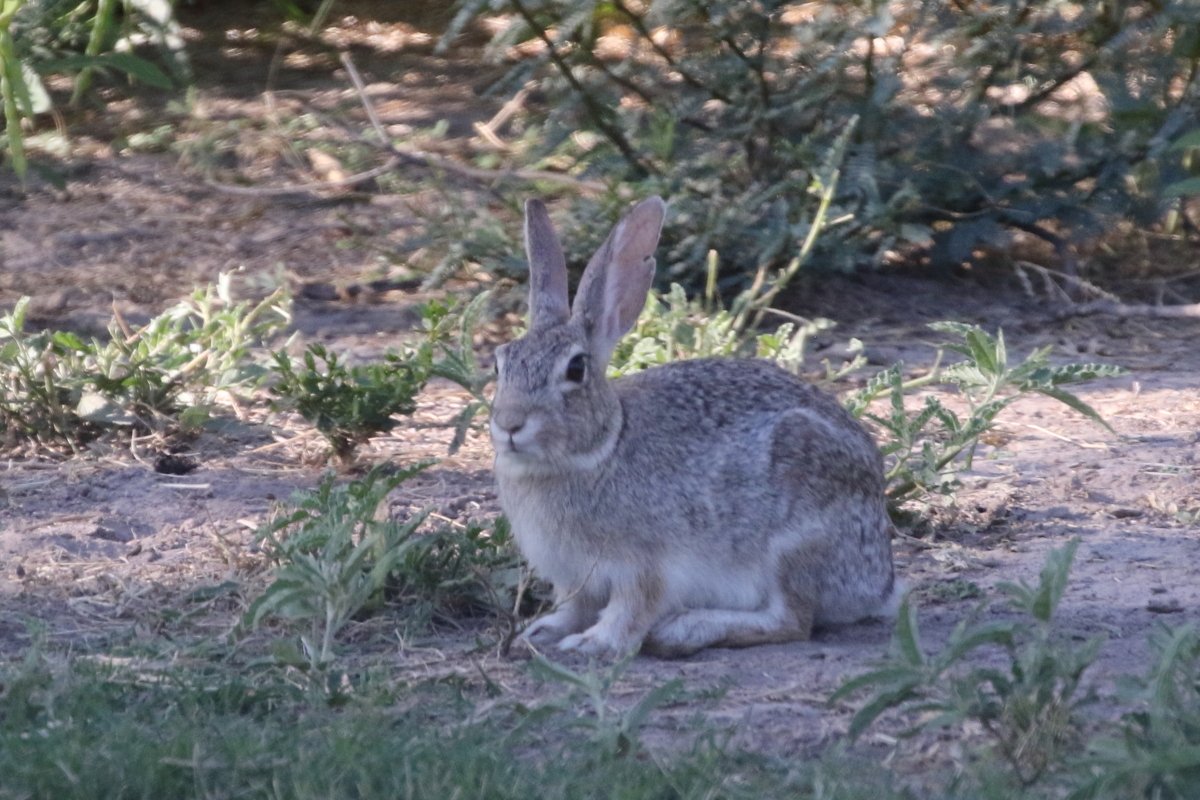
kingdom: Animalia
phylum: Chordata
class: Mammalia
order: Lagomorpha
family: Leporidae
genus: Sylvilagus
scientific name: Sylvilagus audubonii
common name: Desert cottontail
